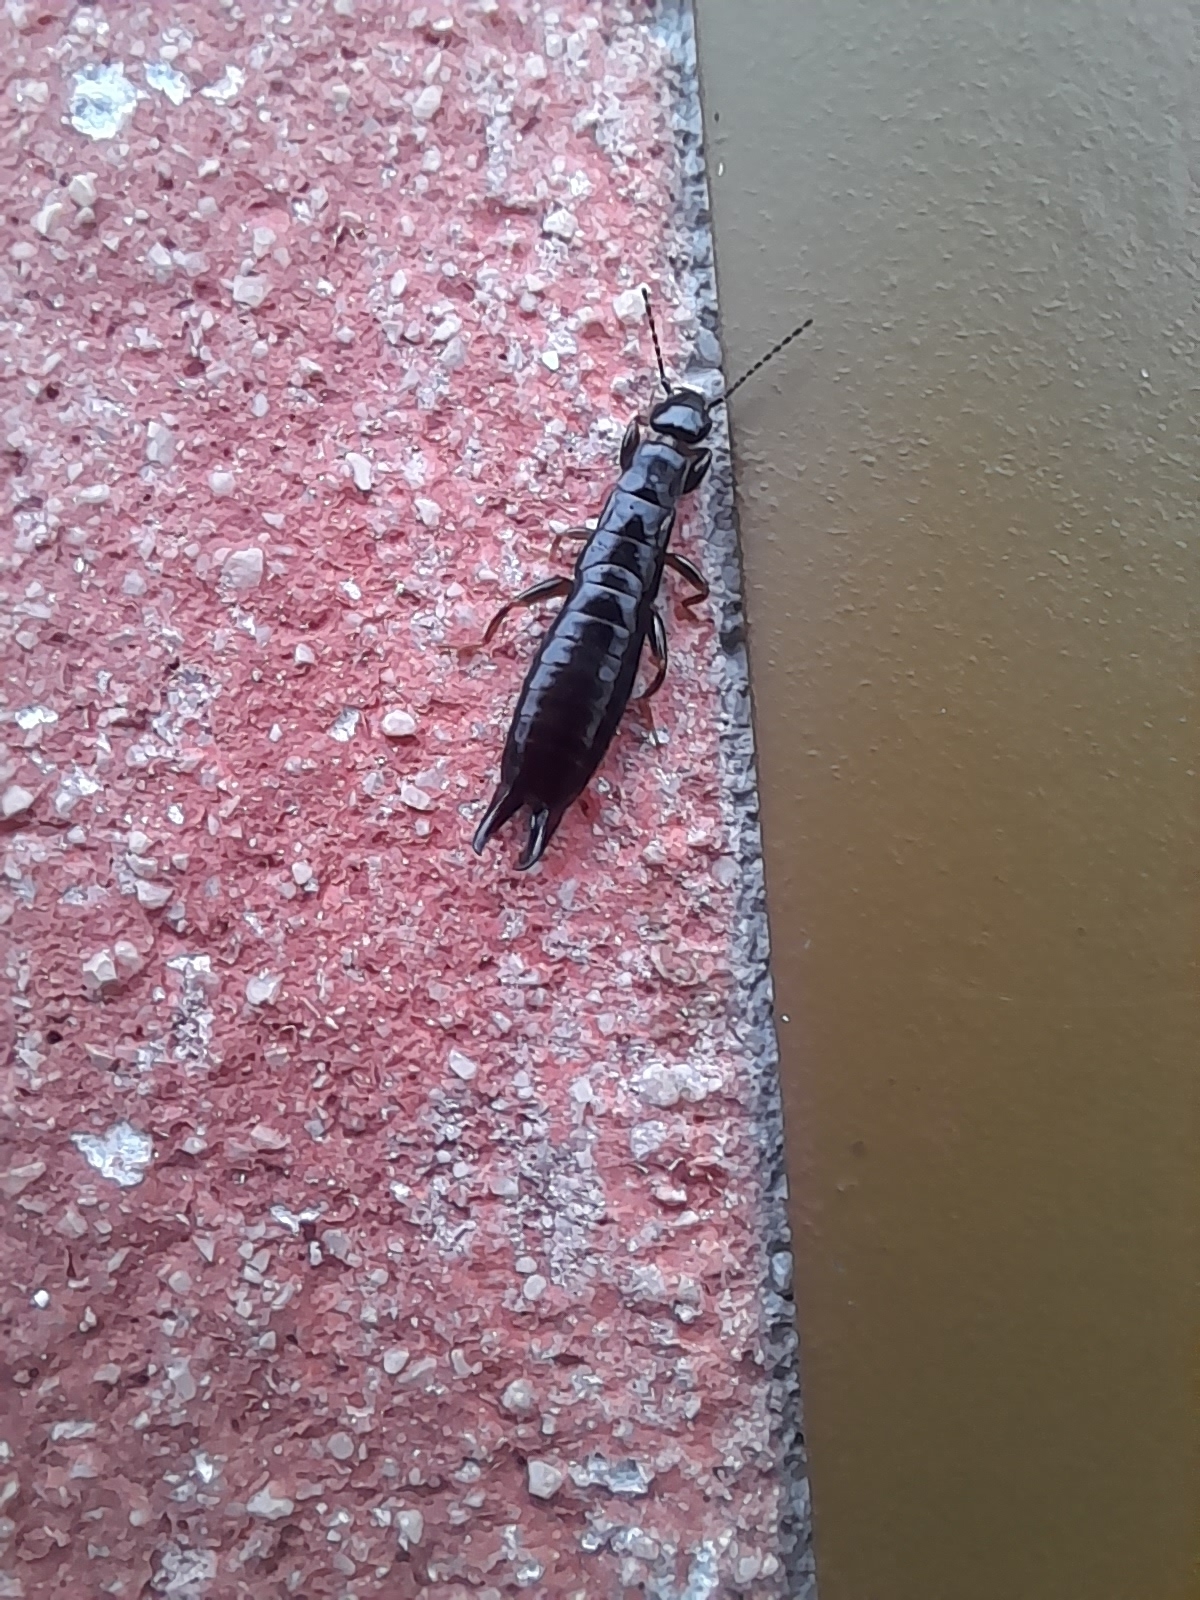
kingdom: Animalia
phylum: Arthropoda
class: Insecta
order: Dermaptera
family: Anisolabididae
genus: Euborellia
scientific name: Euborellia moesta
